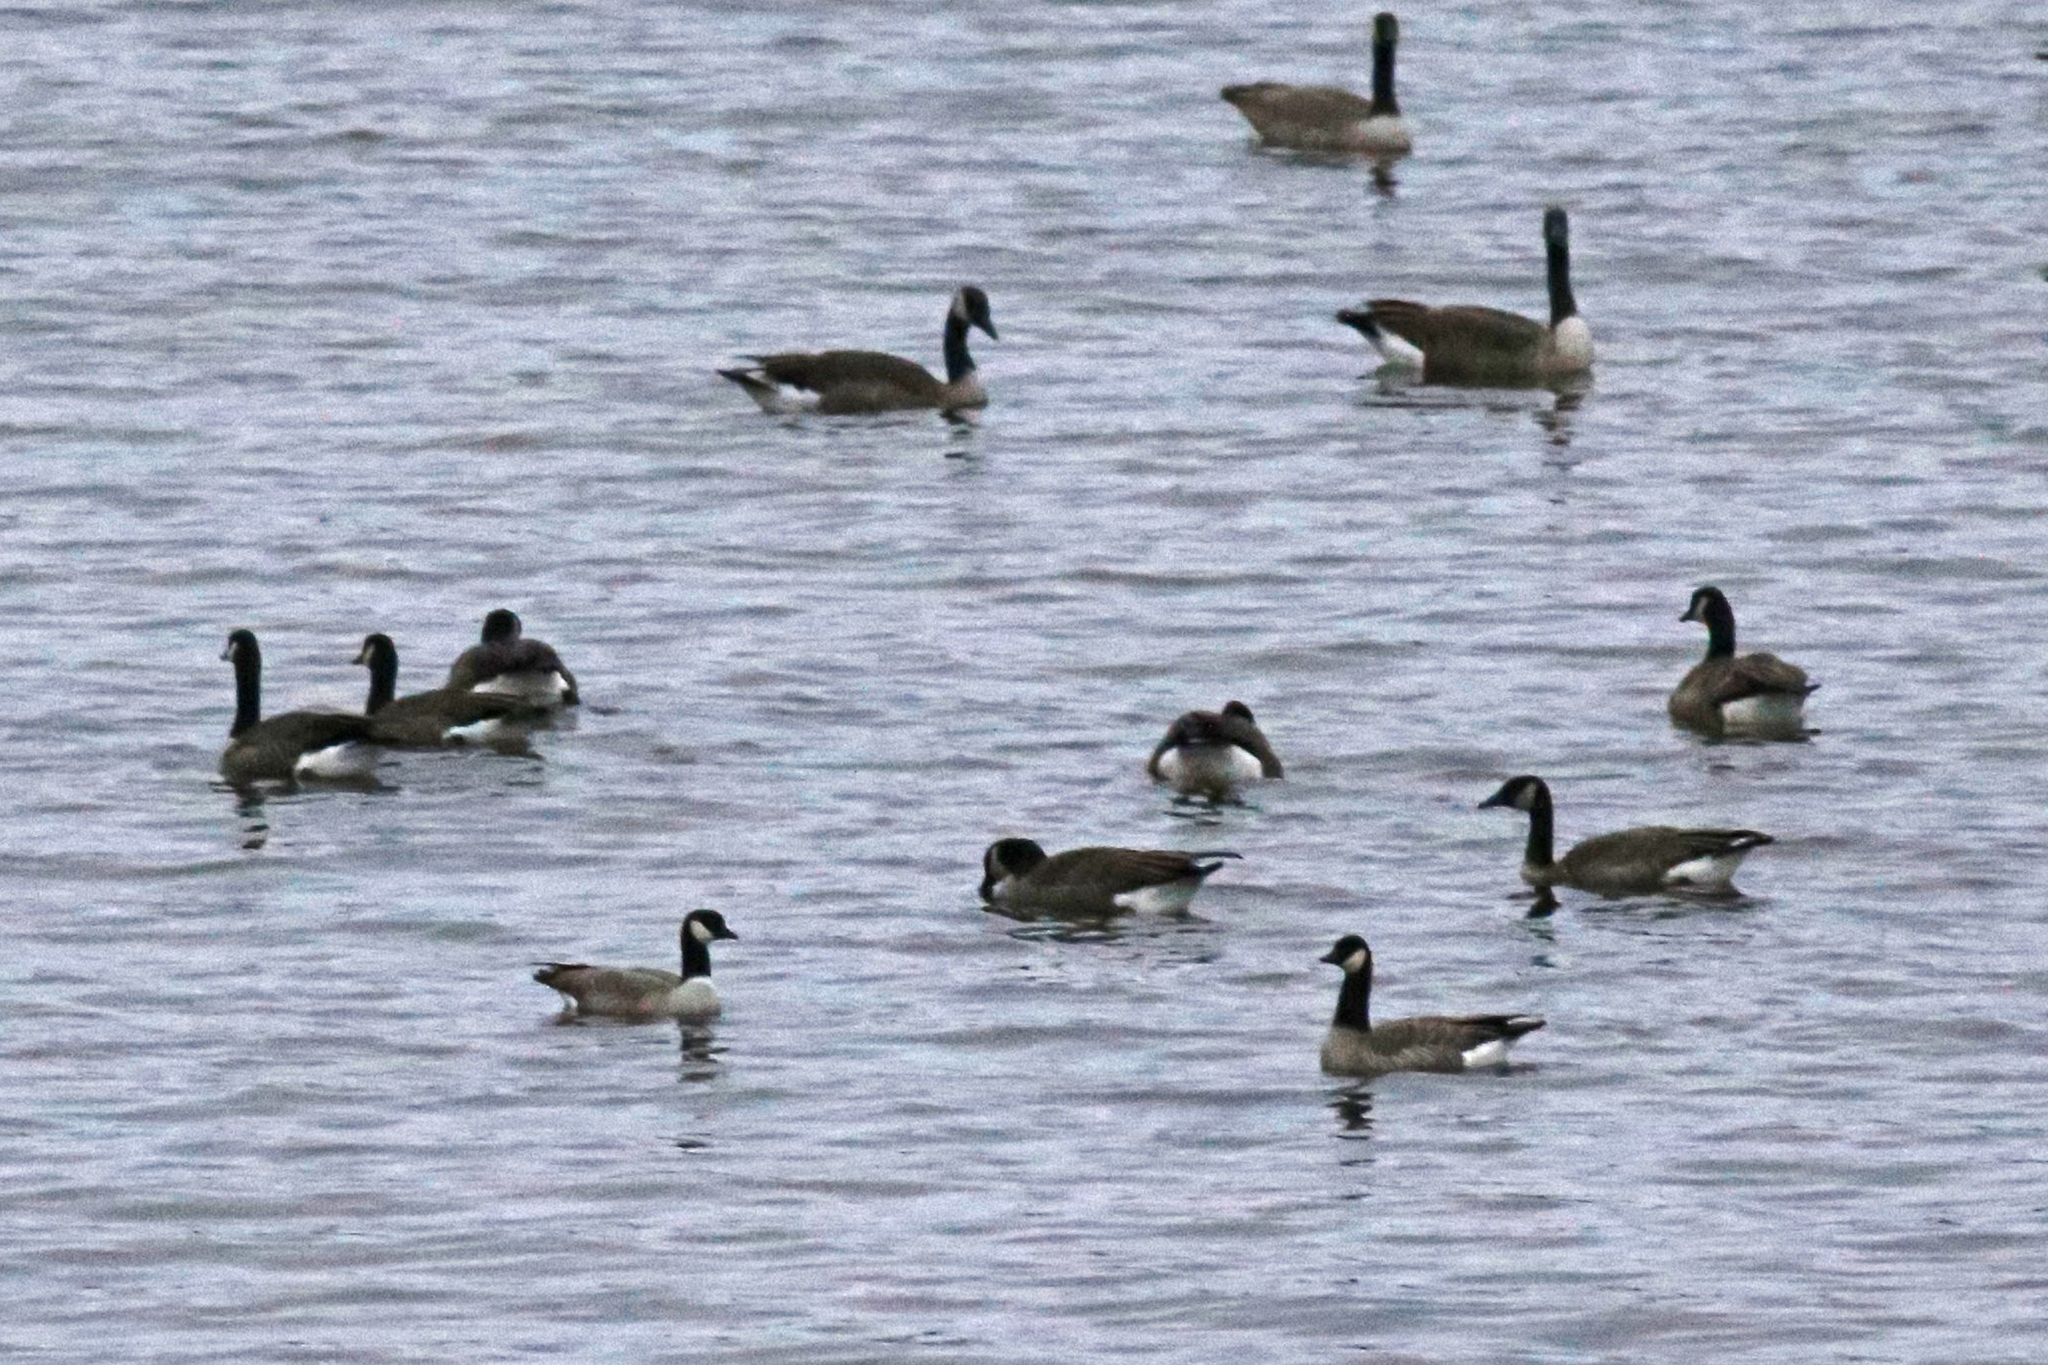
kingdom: Animalia
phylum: Chordata
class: Aves
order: Anseriformes
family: Anatidae
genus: Branta
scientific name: Branta hutchinsii
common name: Cackling goose
